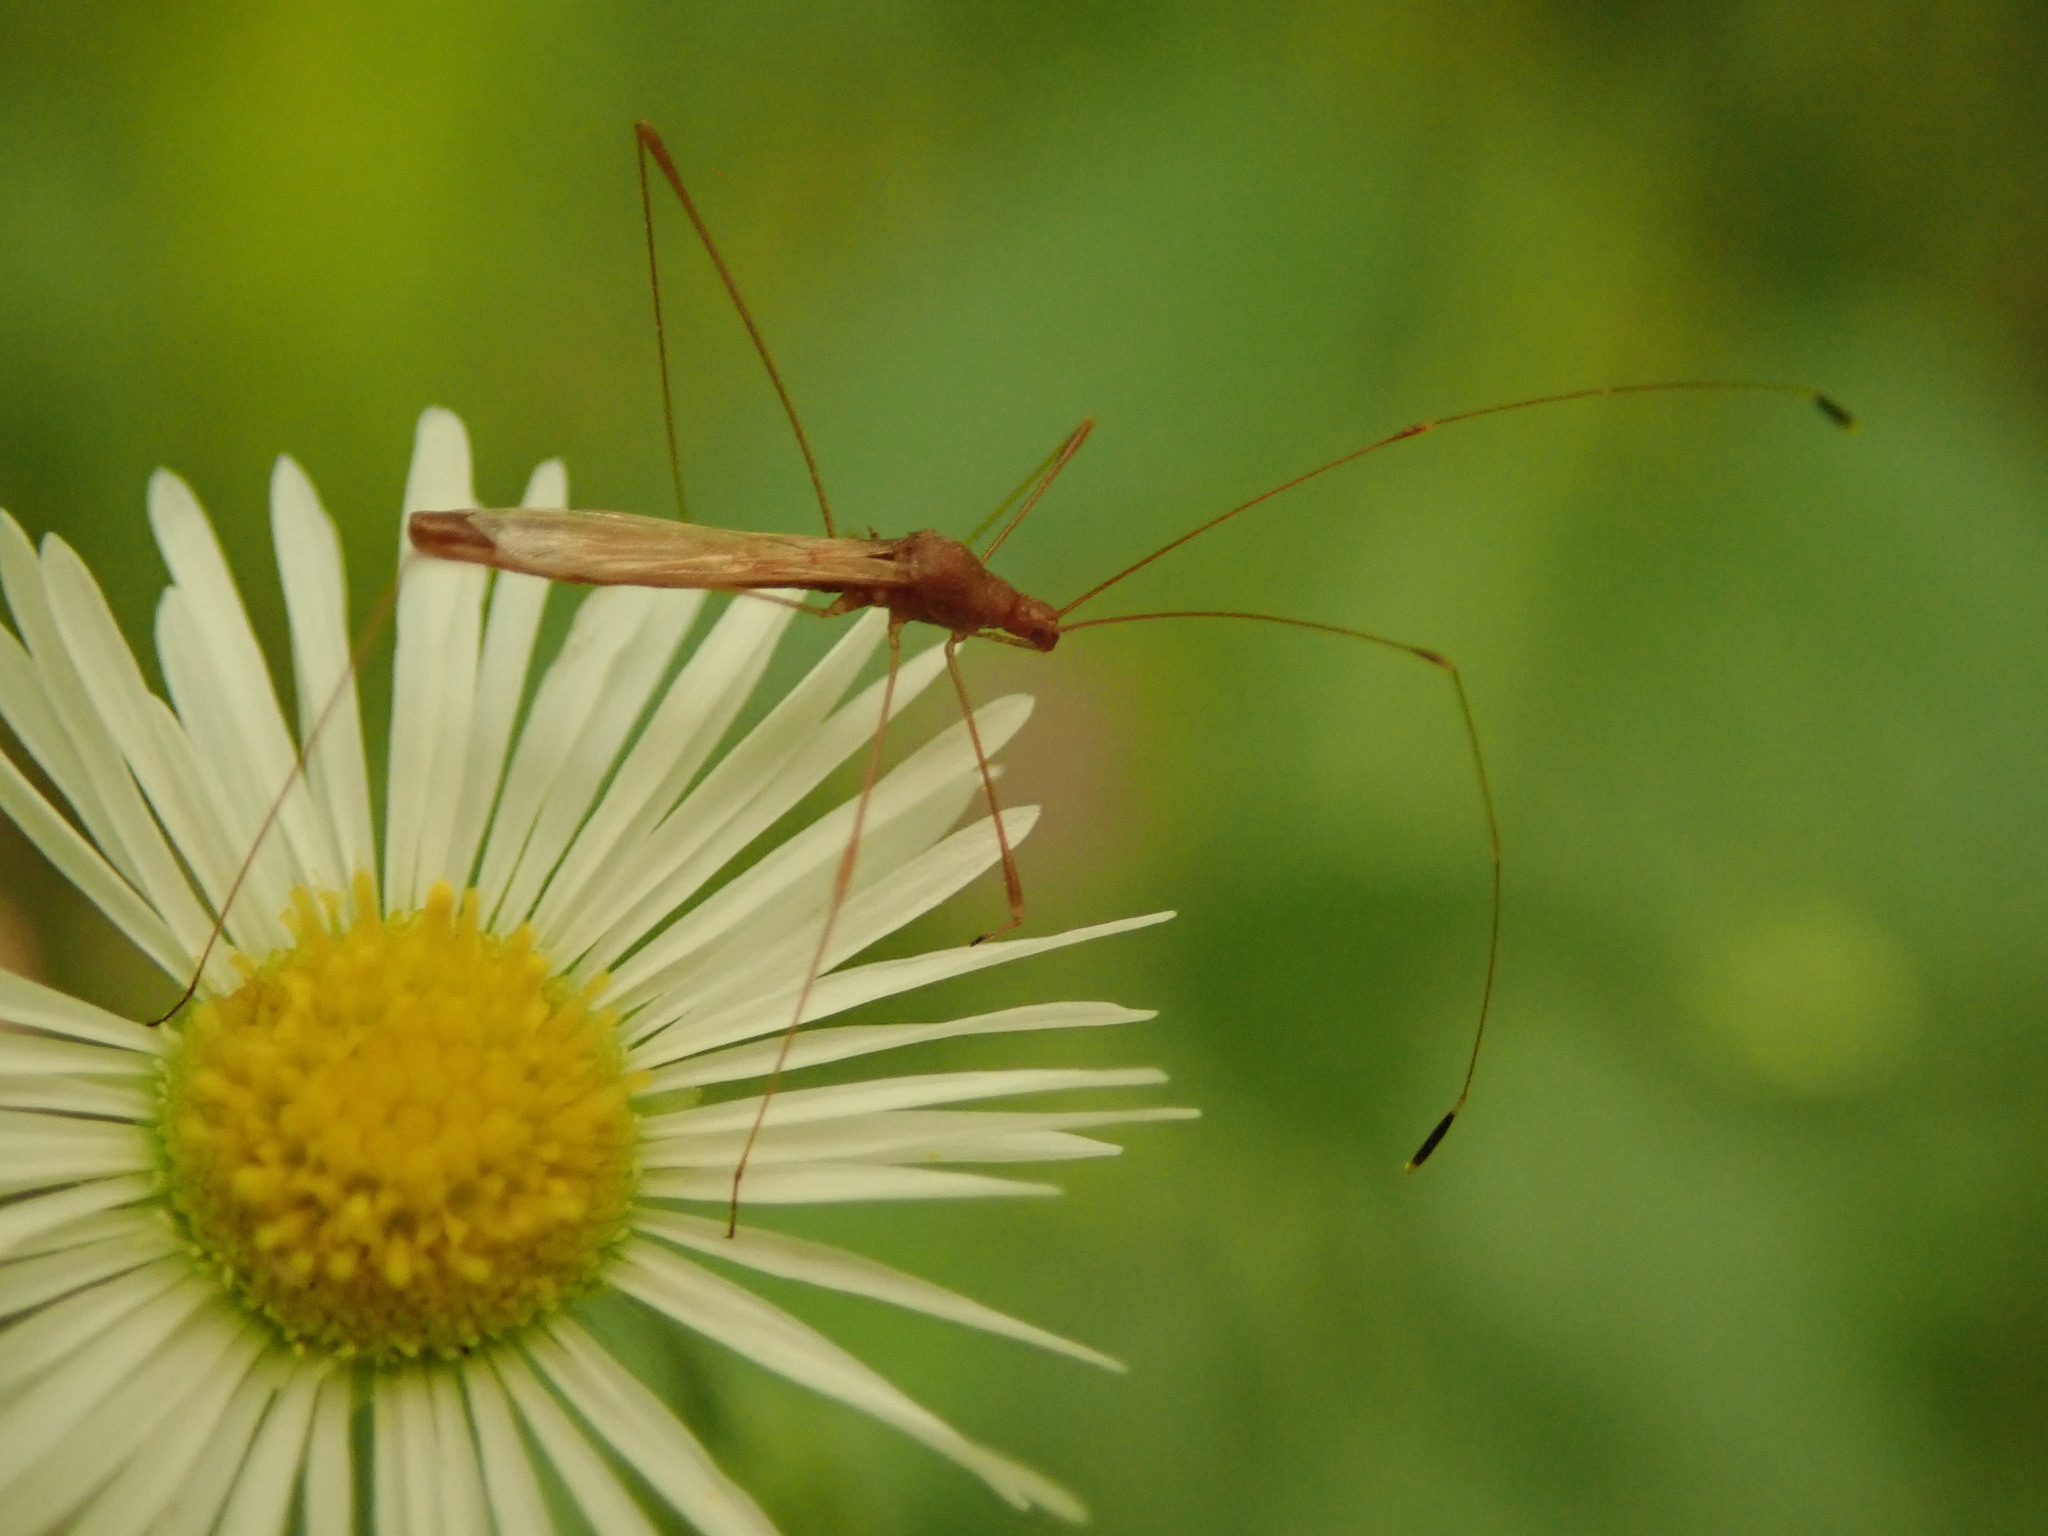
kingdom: Animalia
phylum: Arthropoda
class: Insecta
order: Hemiptera
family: Berytidae
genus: Jalysus
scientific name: Jalysus
